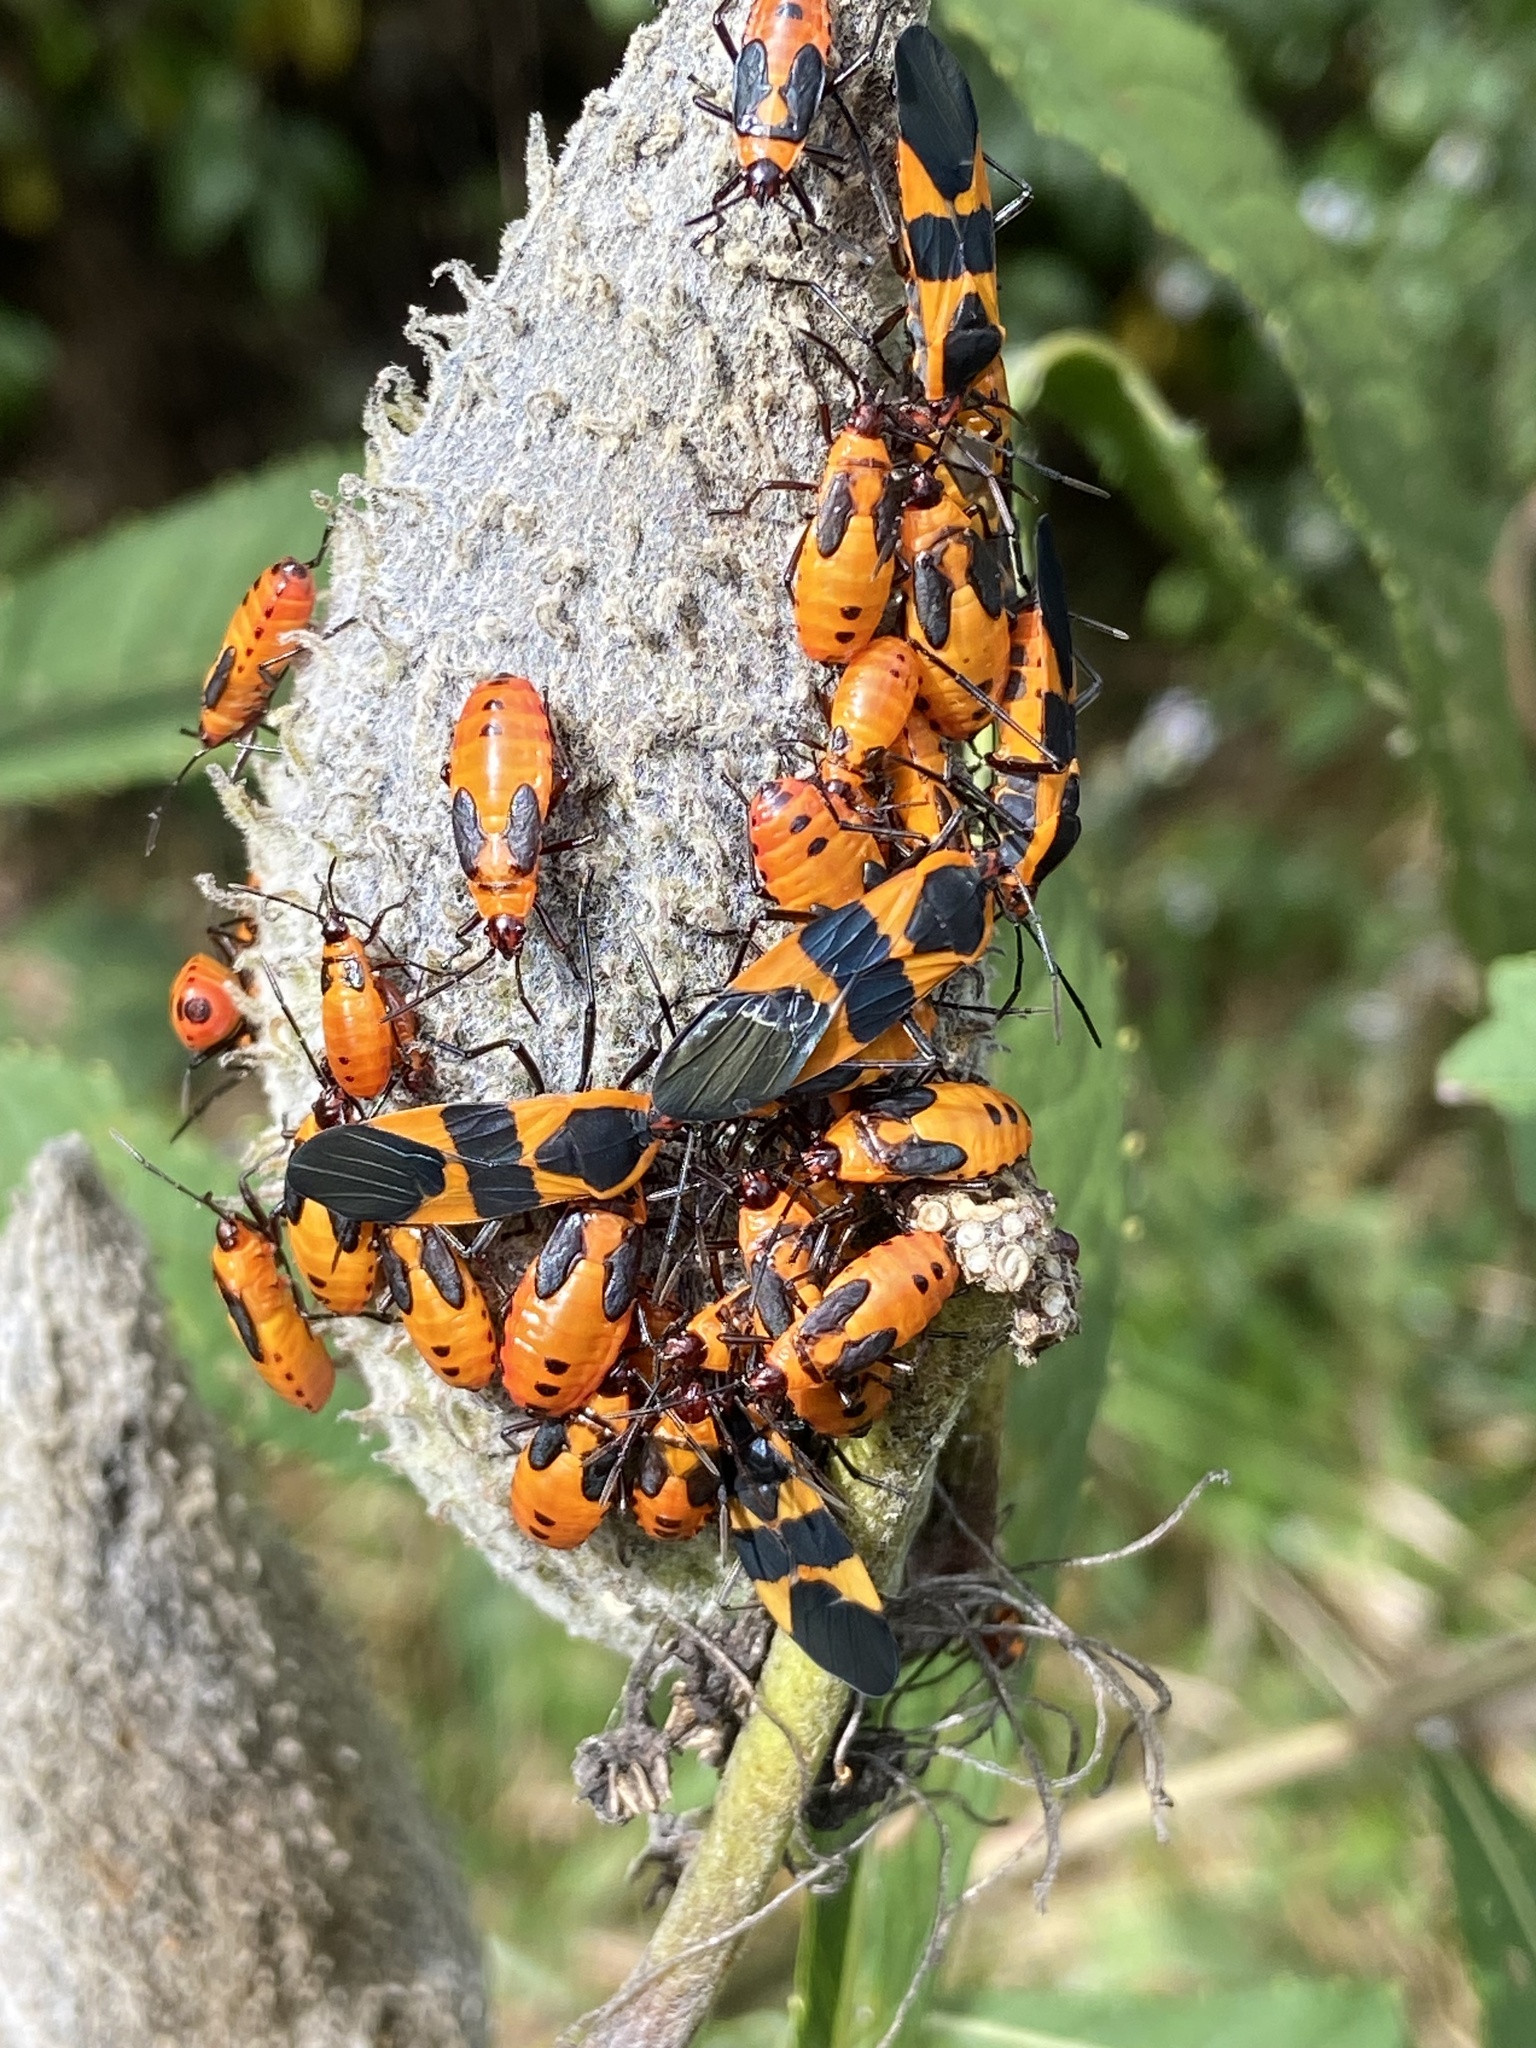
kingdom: Animalia
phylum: Arthropoda
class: Insecta
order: Hemiptera
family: Lygaeidae
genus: Oncopeltus
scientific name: Oncopeltus fasciatus
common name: Large milkweed bug
